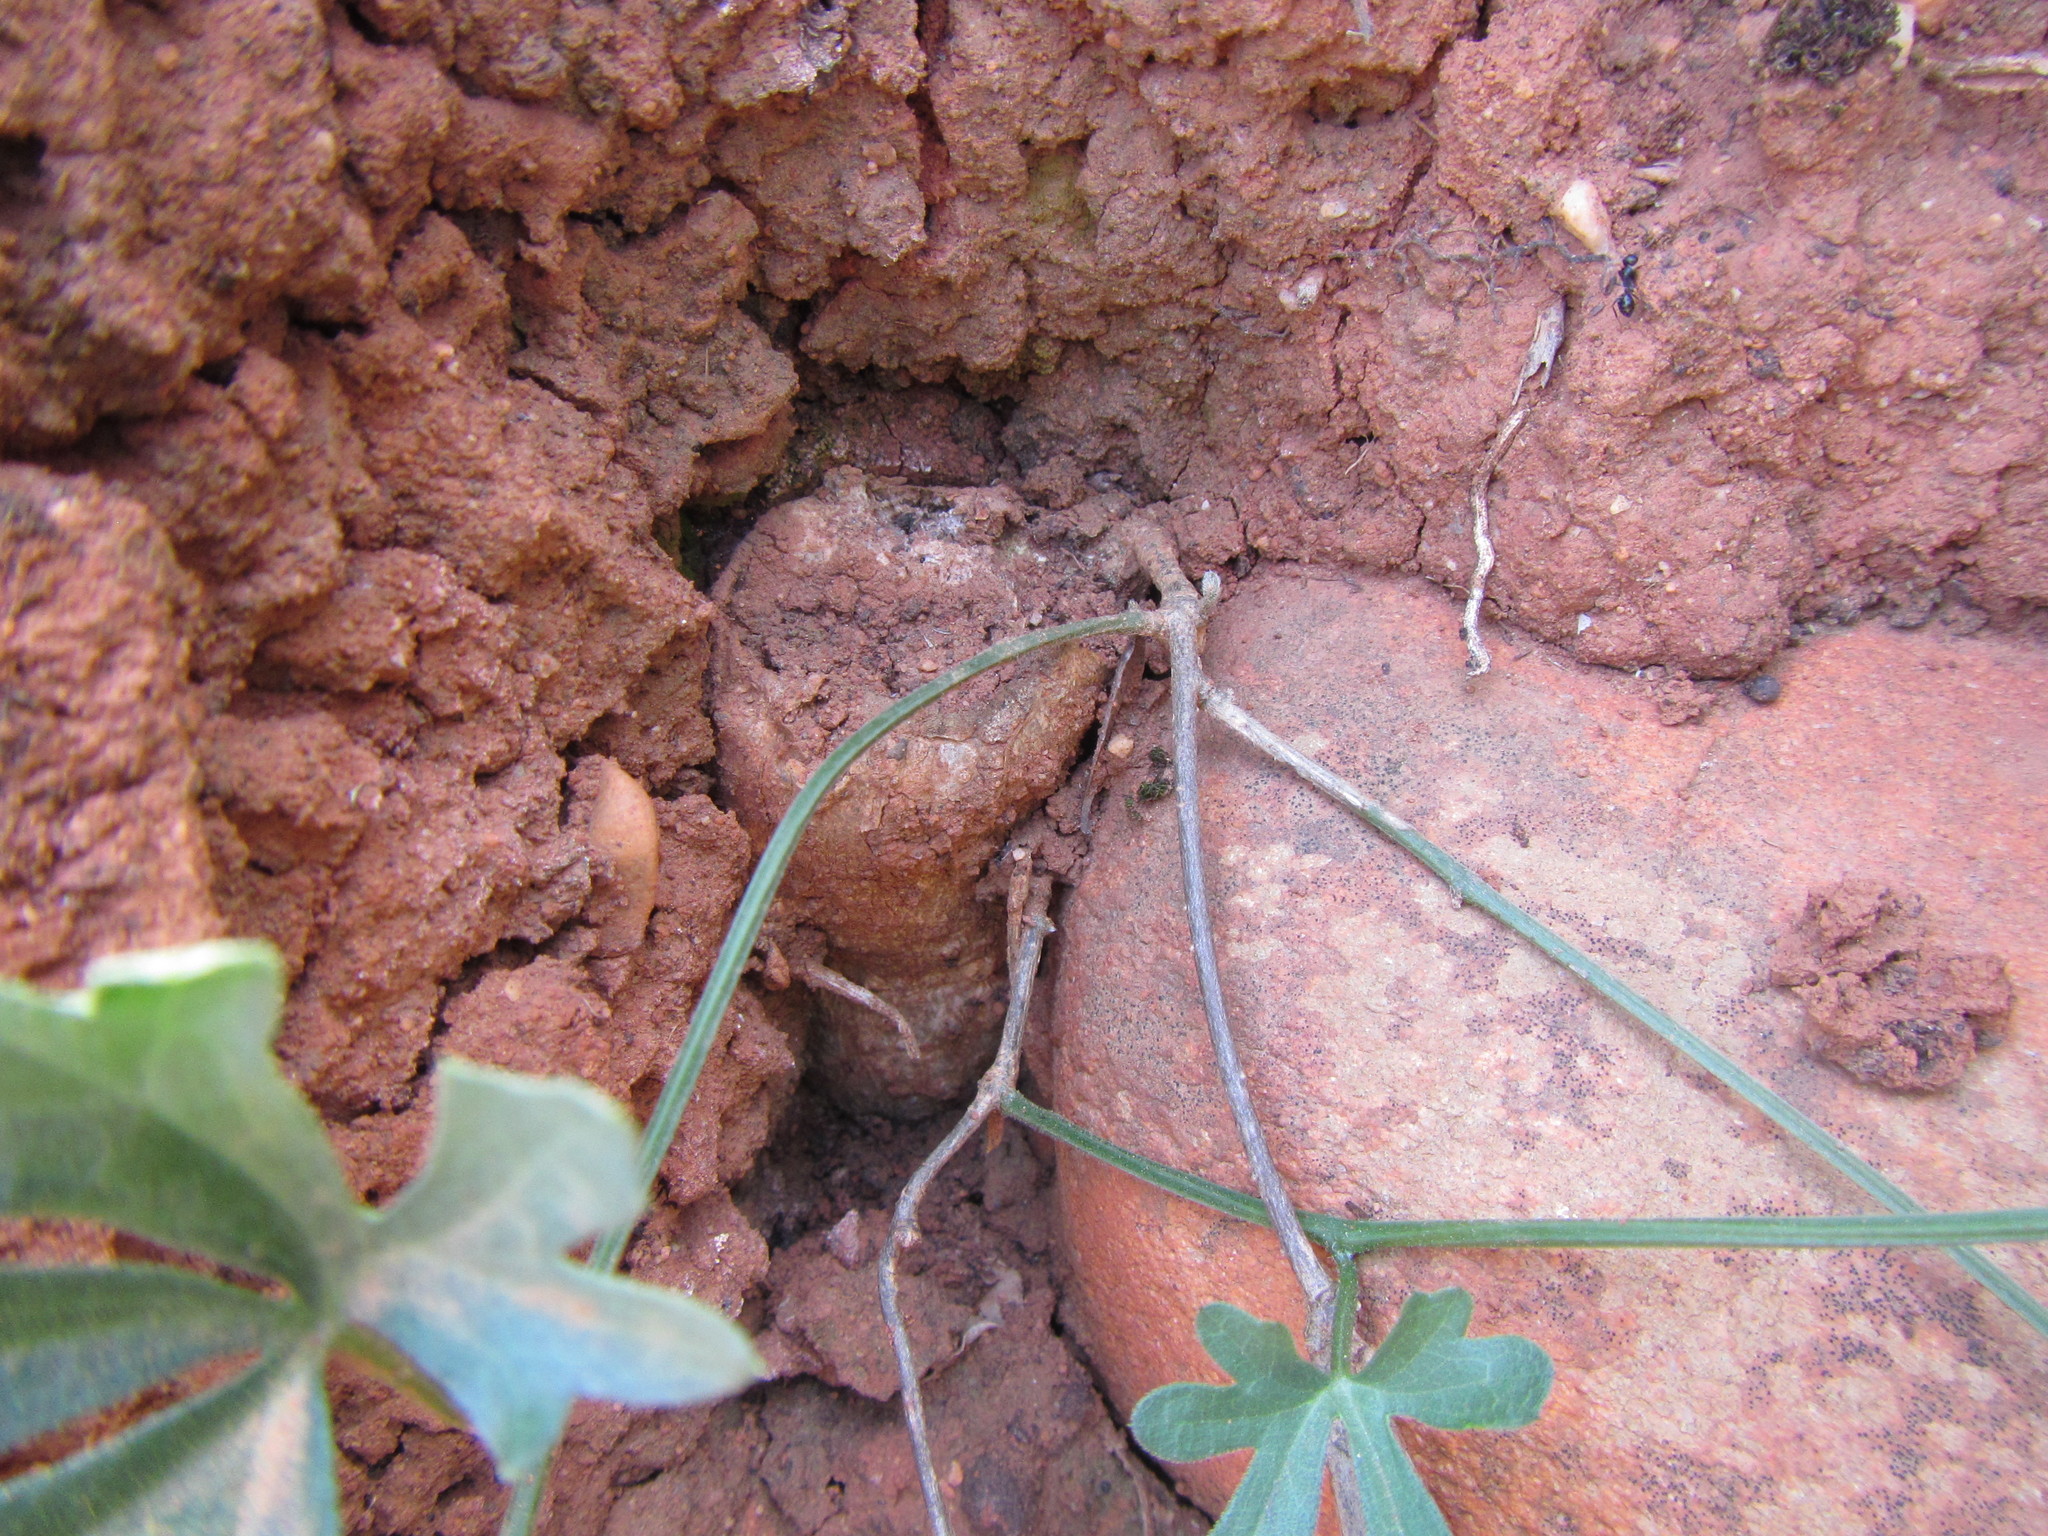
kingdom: Plantae
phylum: Tracheophyta
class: Magnoliopsida
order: Cucurbitales
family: Cucurbitaceae
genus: Kedrostis
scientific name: Kedrostis capensis
